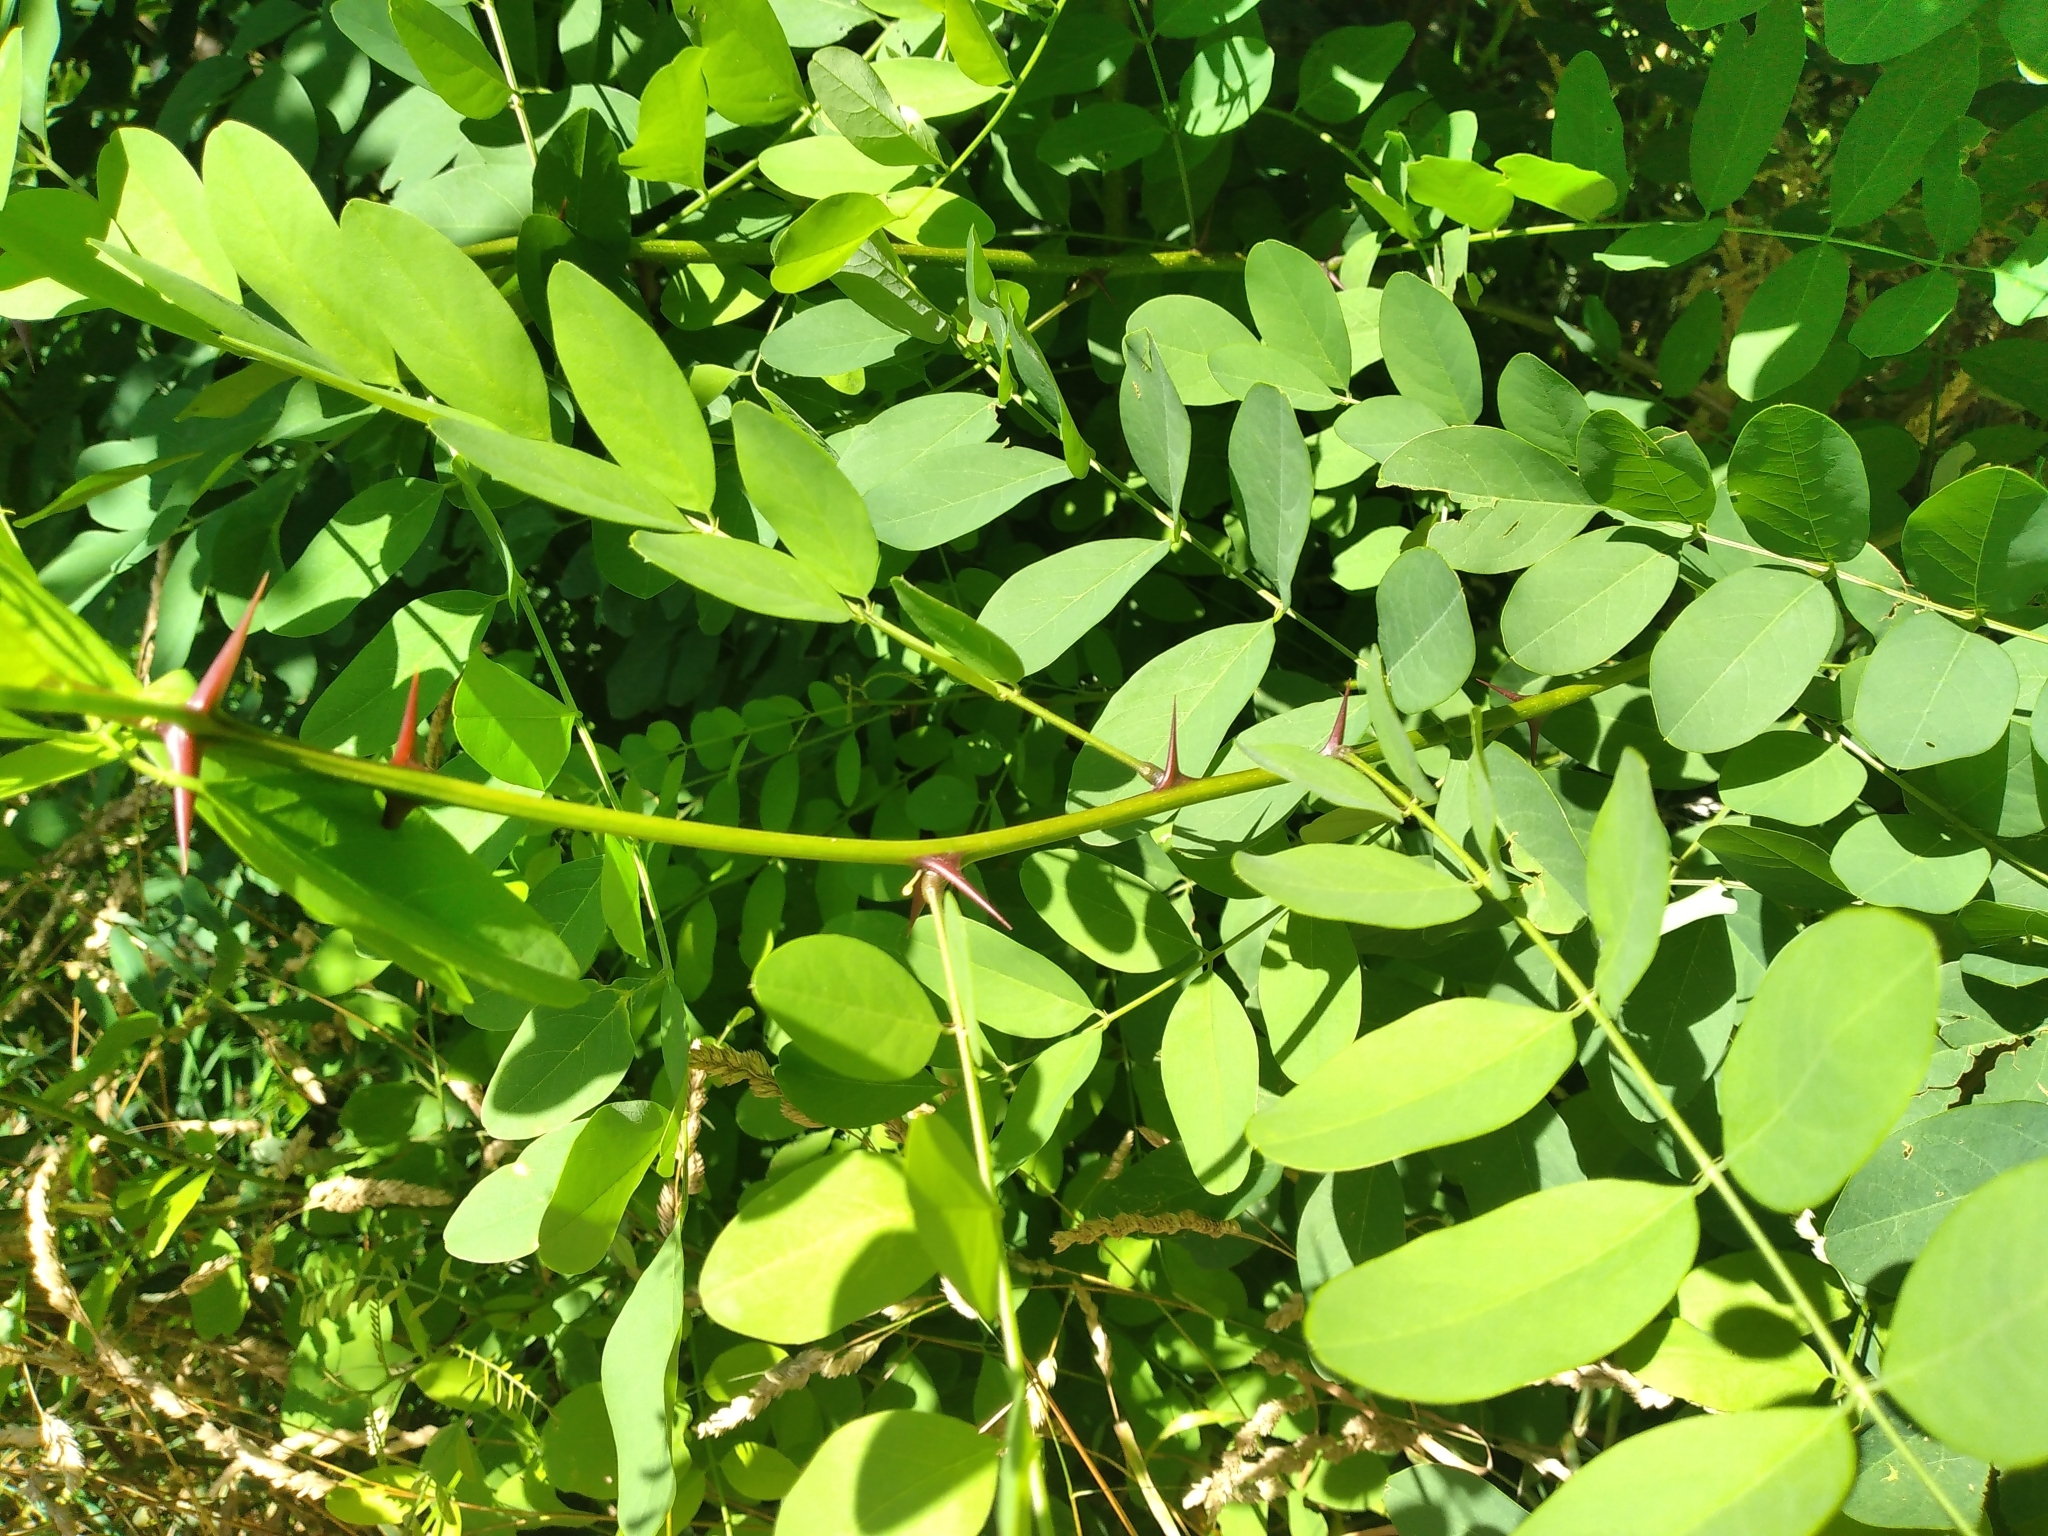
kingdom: Plantae
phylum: Tracheophyta
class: Magnoliopsida
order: Fabales
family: Fabaceae
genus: Robinia
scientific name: Robinia pseudoacacia
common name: Black locust
